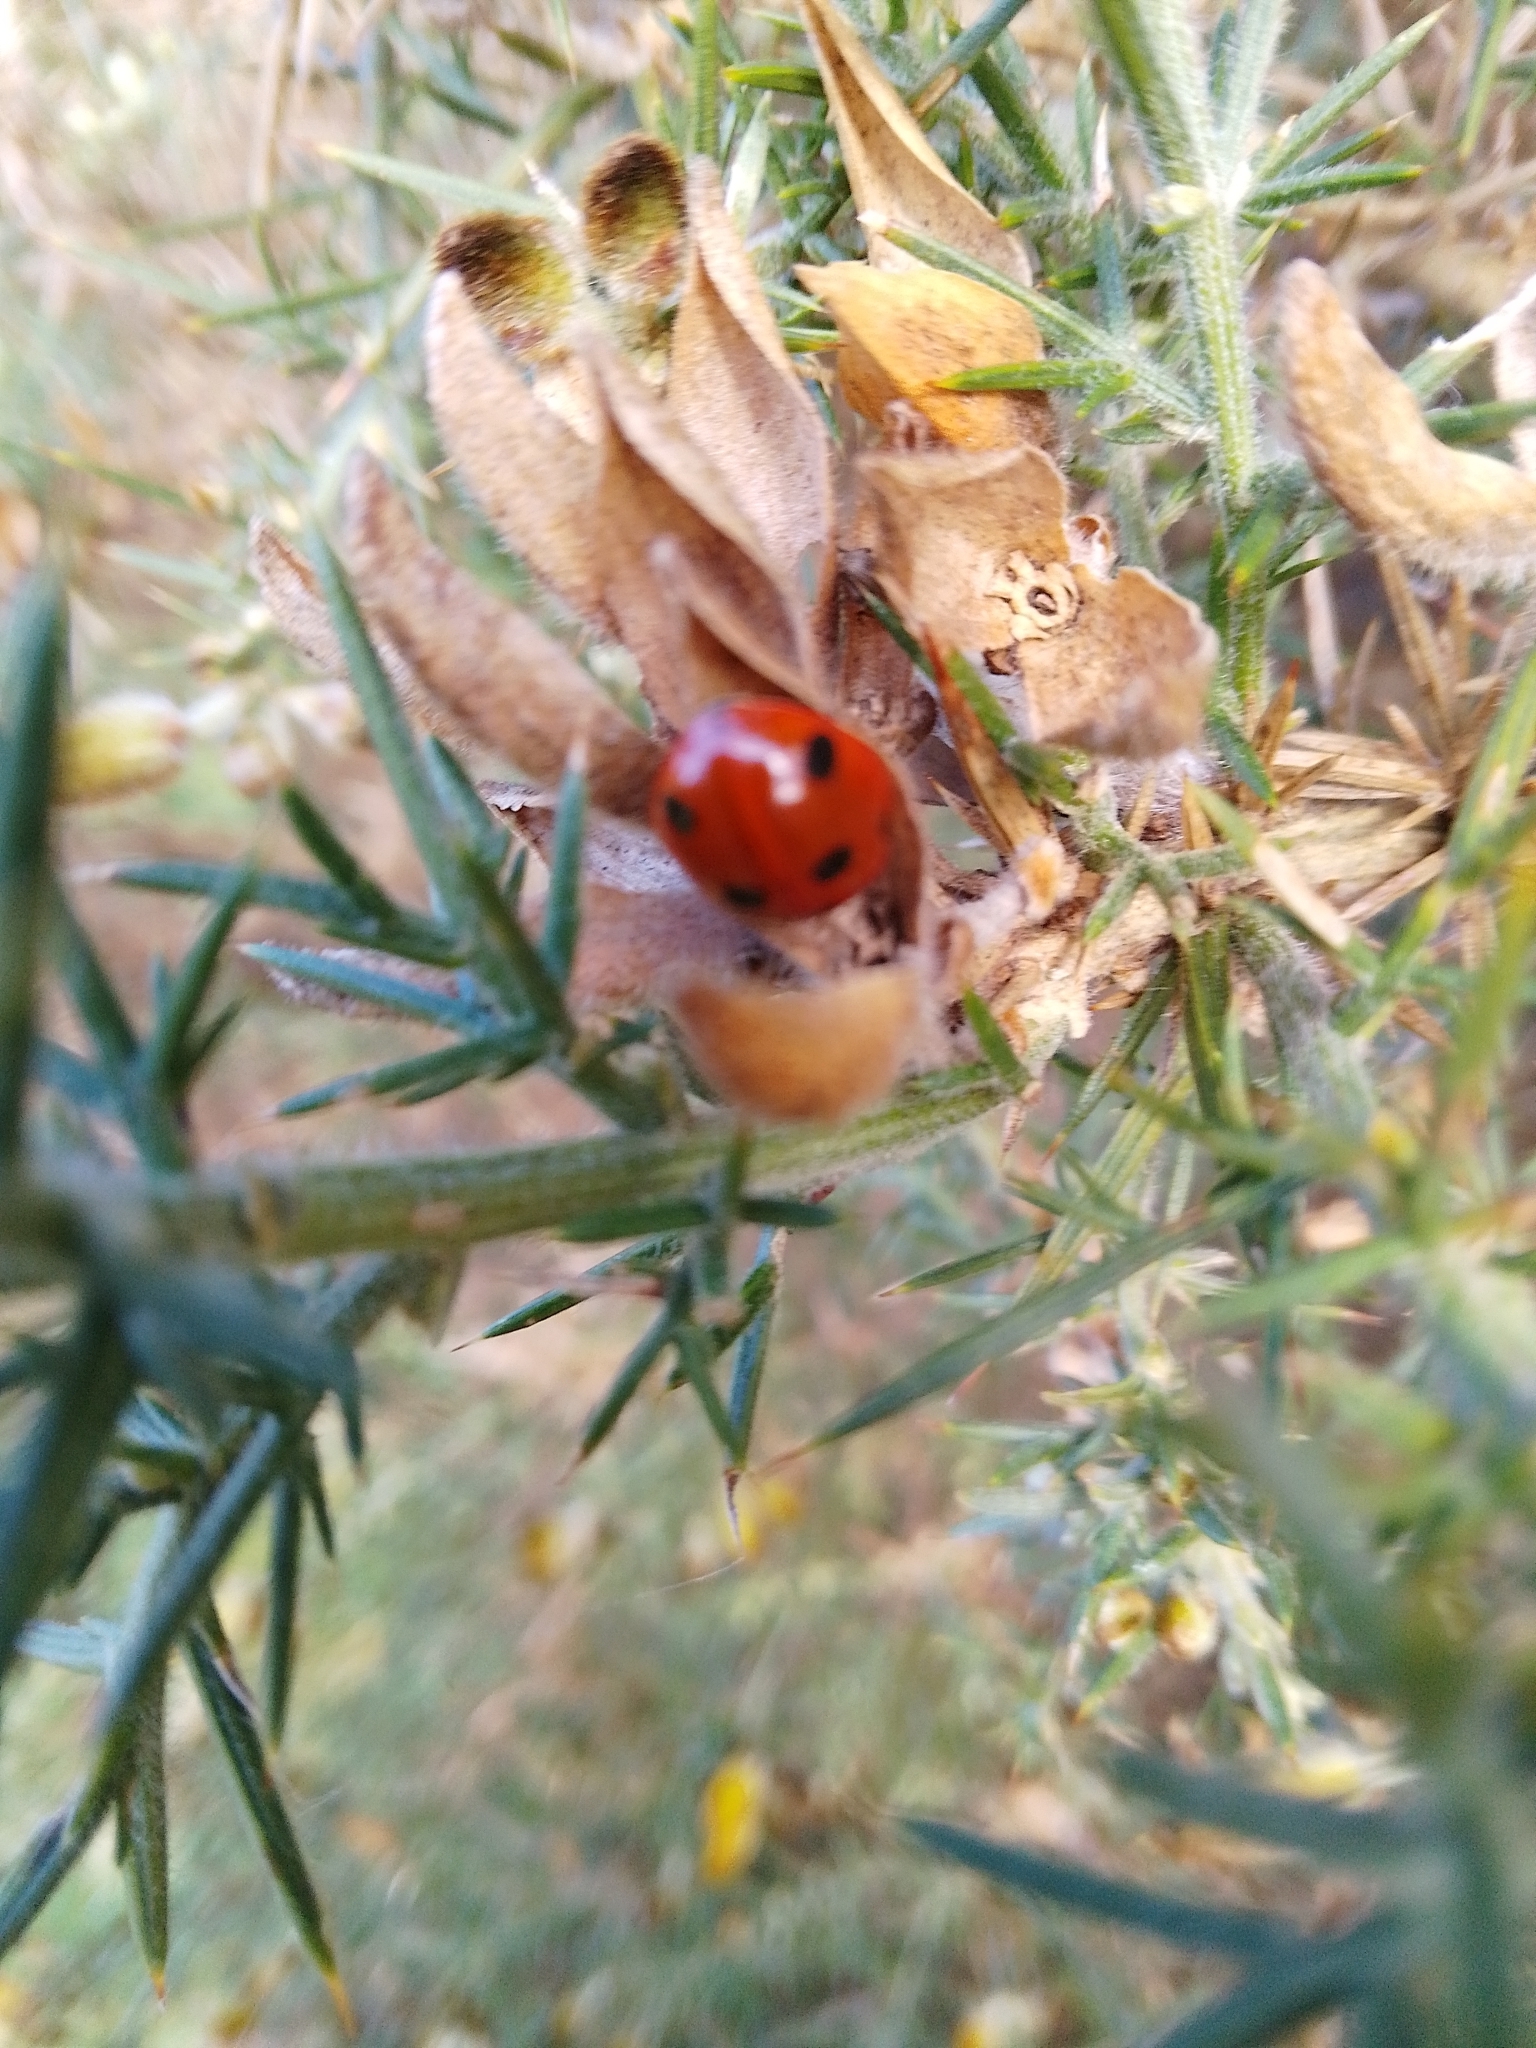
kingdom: Animalia
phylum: Arthropoda
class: Insecta
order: Coleoptera
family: Coccinellidae
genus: Coccinella
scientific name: Coccinella septempunctata
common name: Sevenspotted lady beetle
